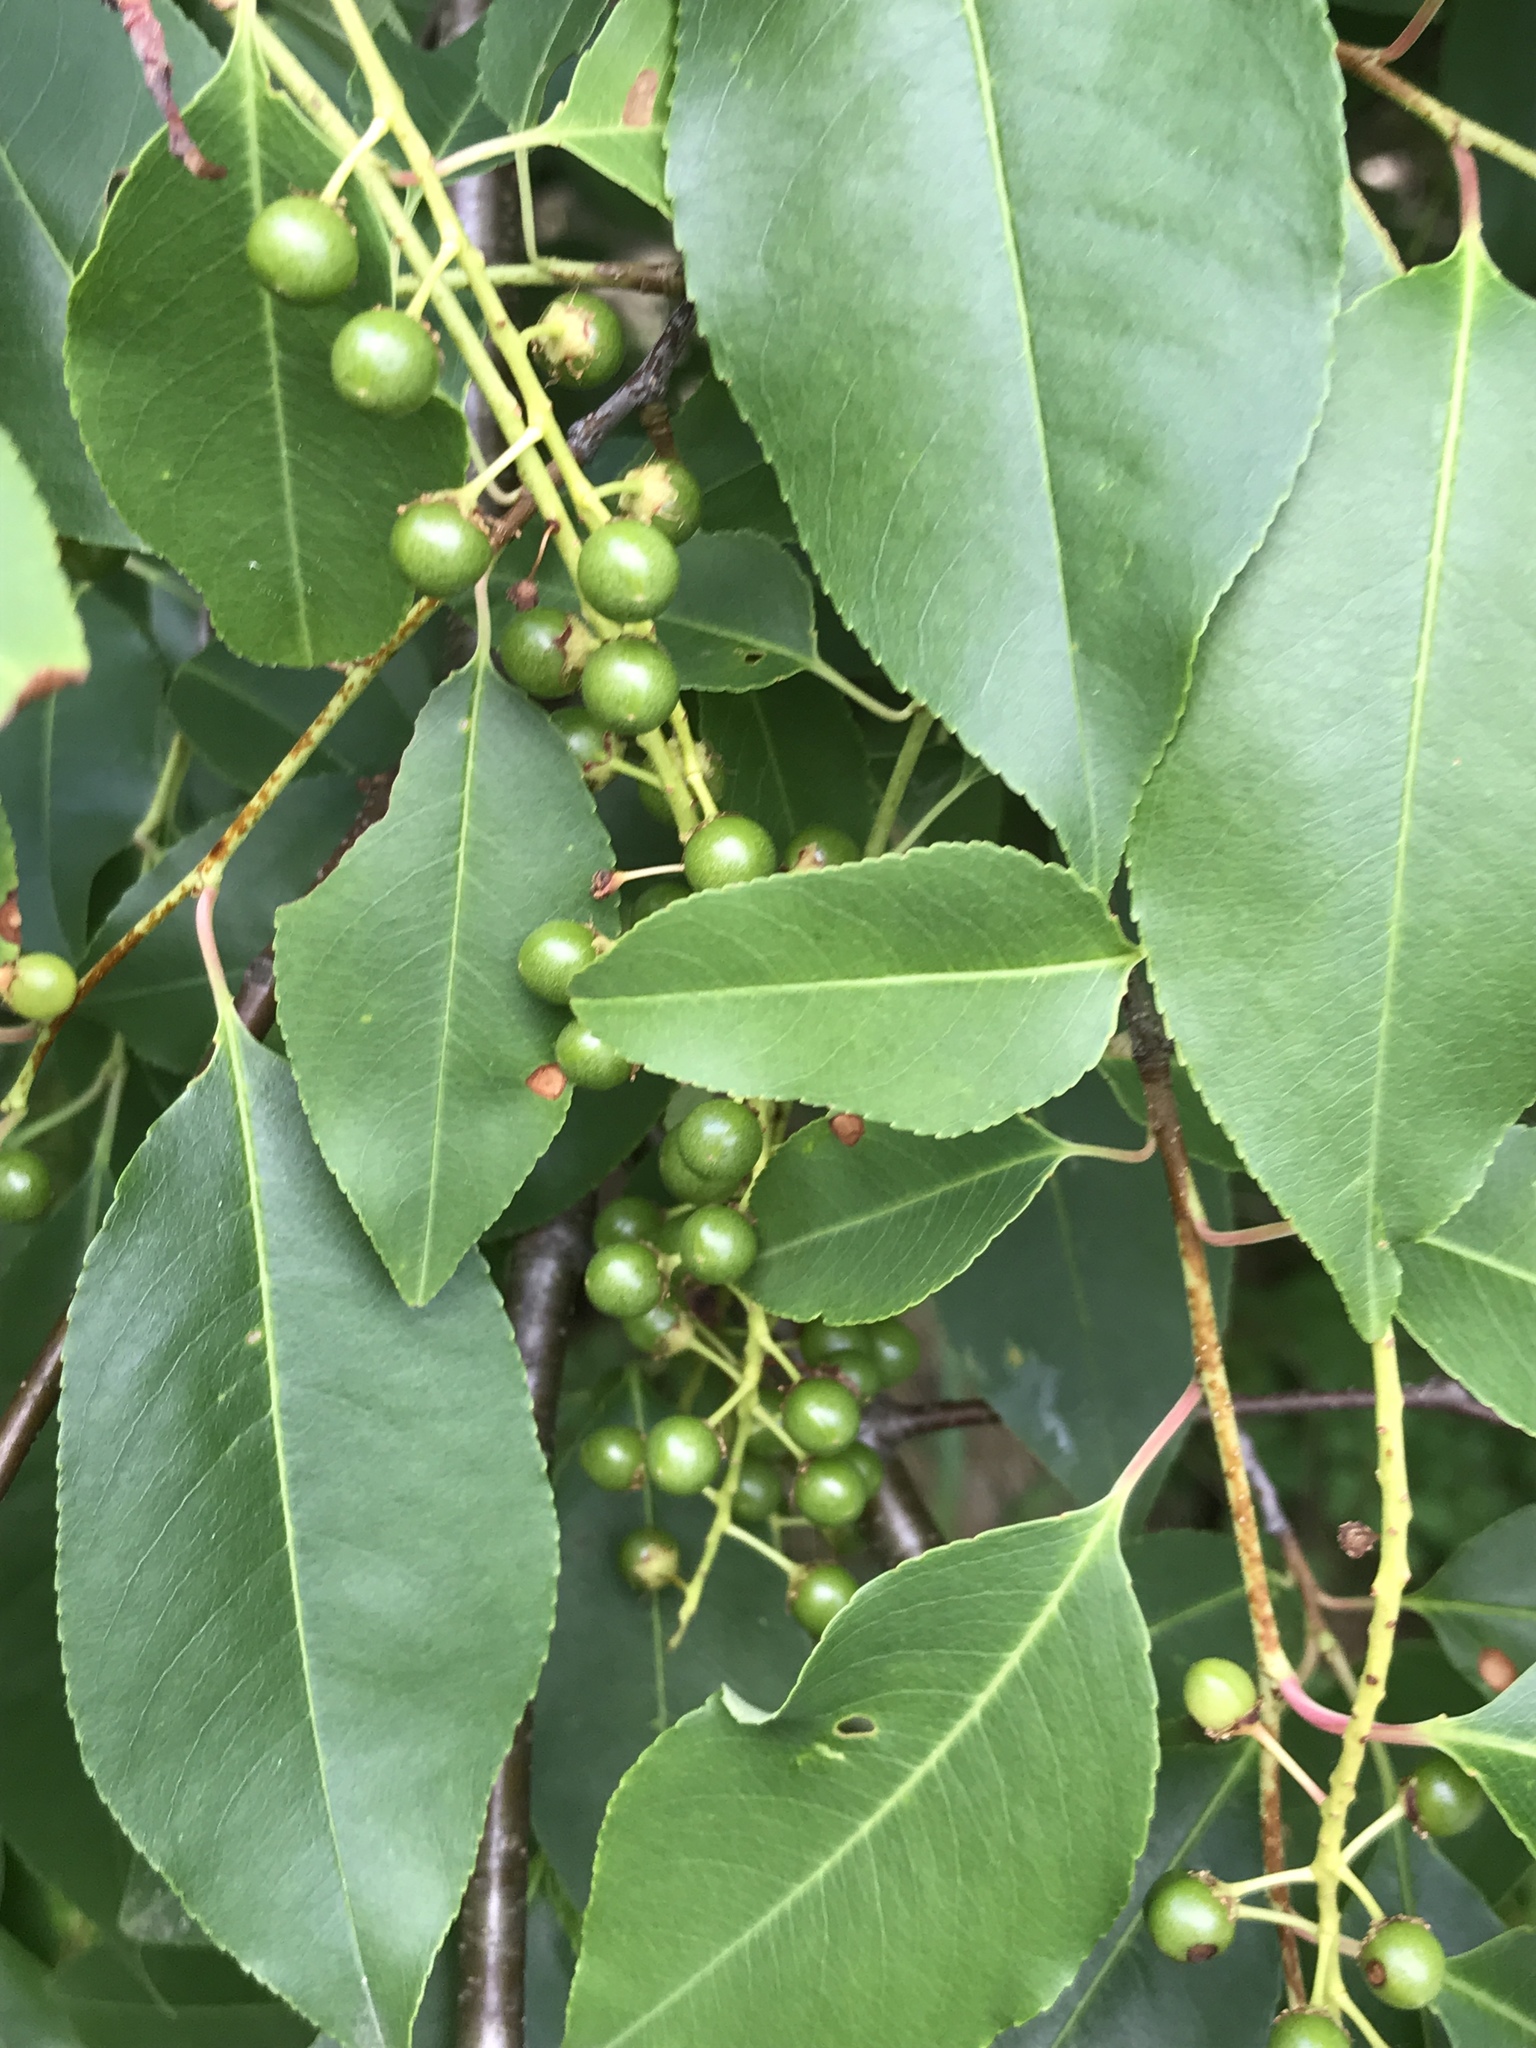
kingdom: Plantae
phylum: Tracheophyta
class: Magnoliopsida
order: Rosales
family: Rosaceae
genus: Prunus
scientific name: Prunus serotina
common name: Black cherry
